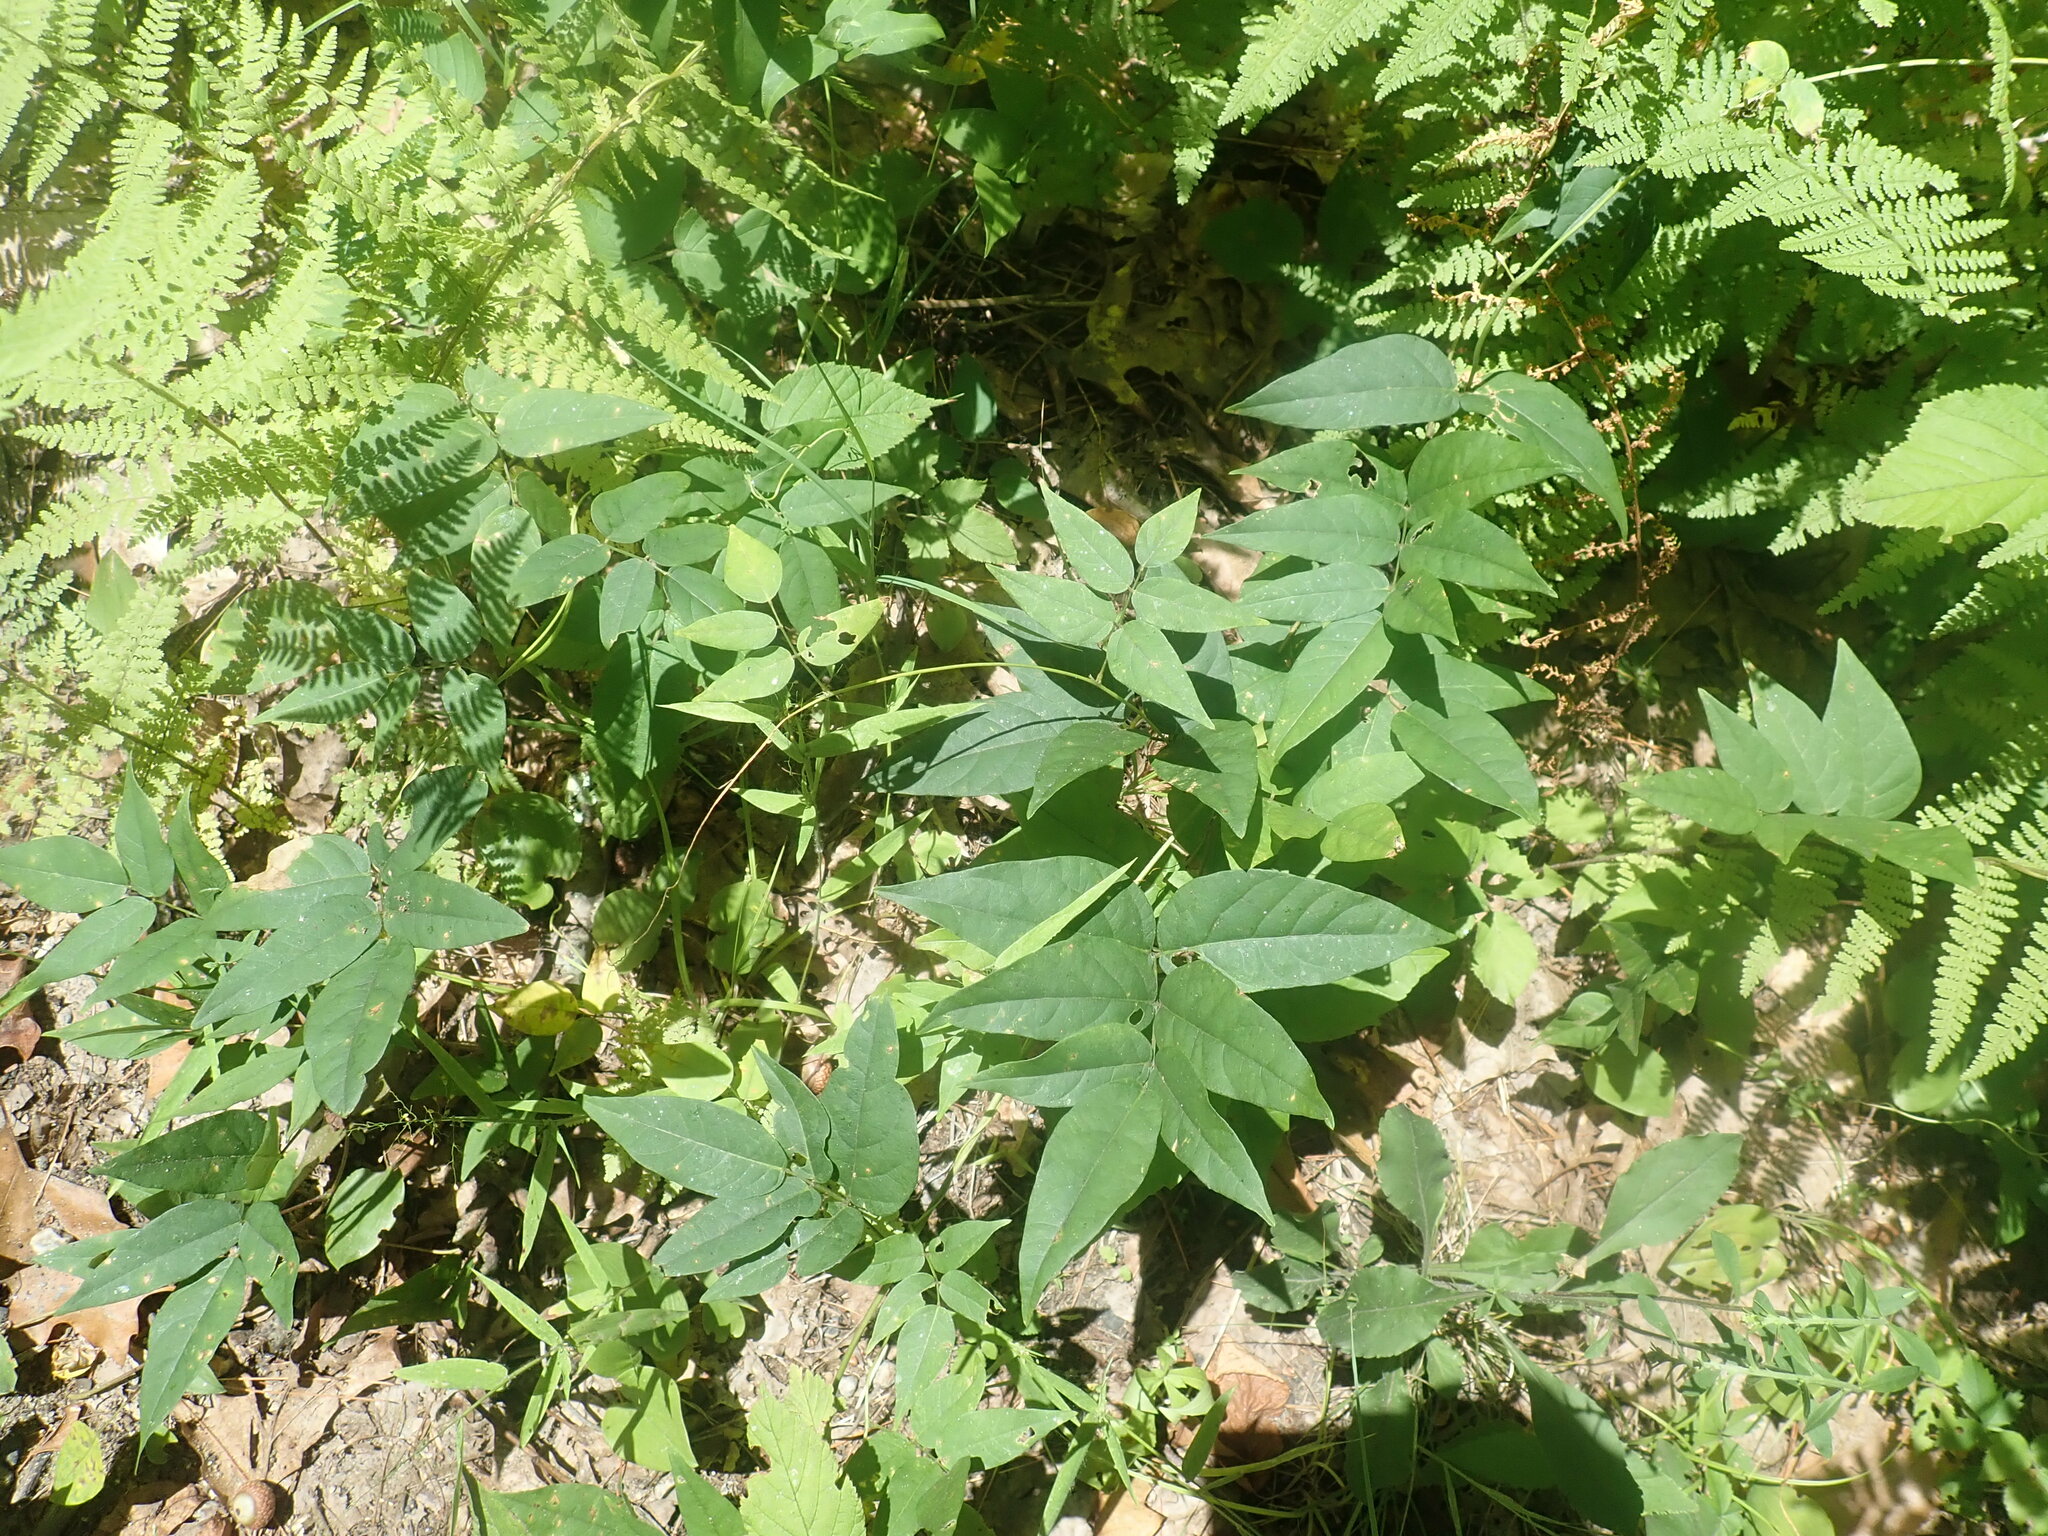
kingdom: Plantae
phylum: Tracheophyta
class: Magnoliopsida
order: Fabales
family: Fabaceae
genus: Apios
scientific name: Apios americana
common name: American potato-bean
